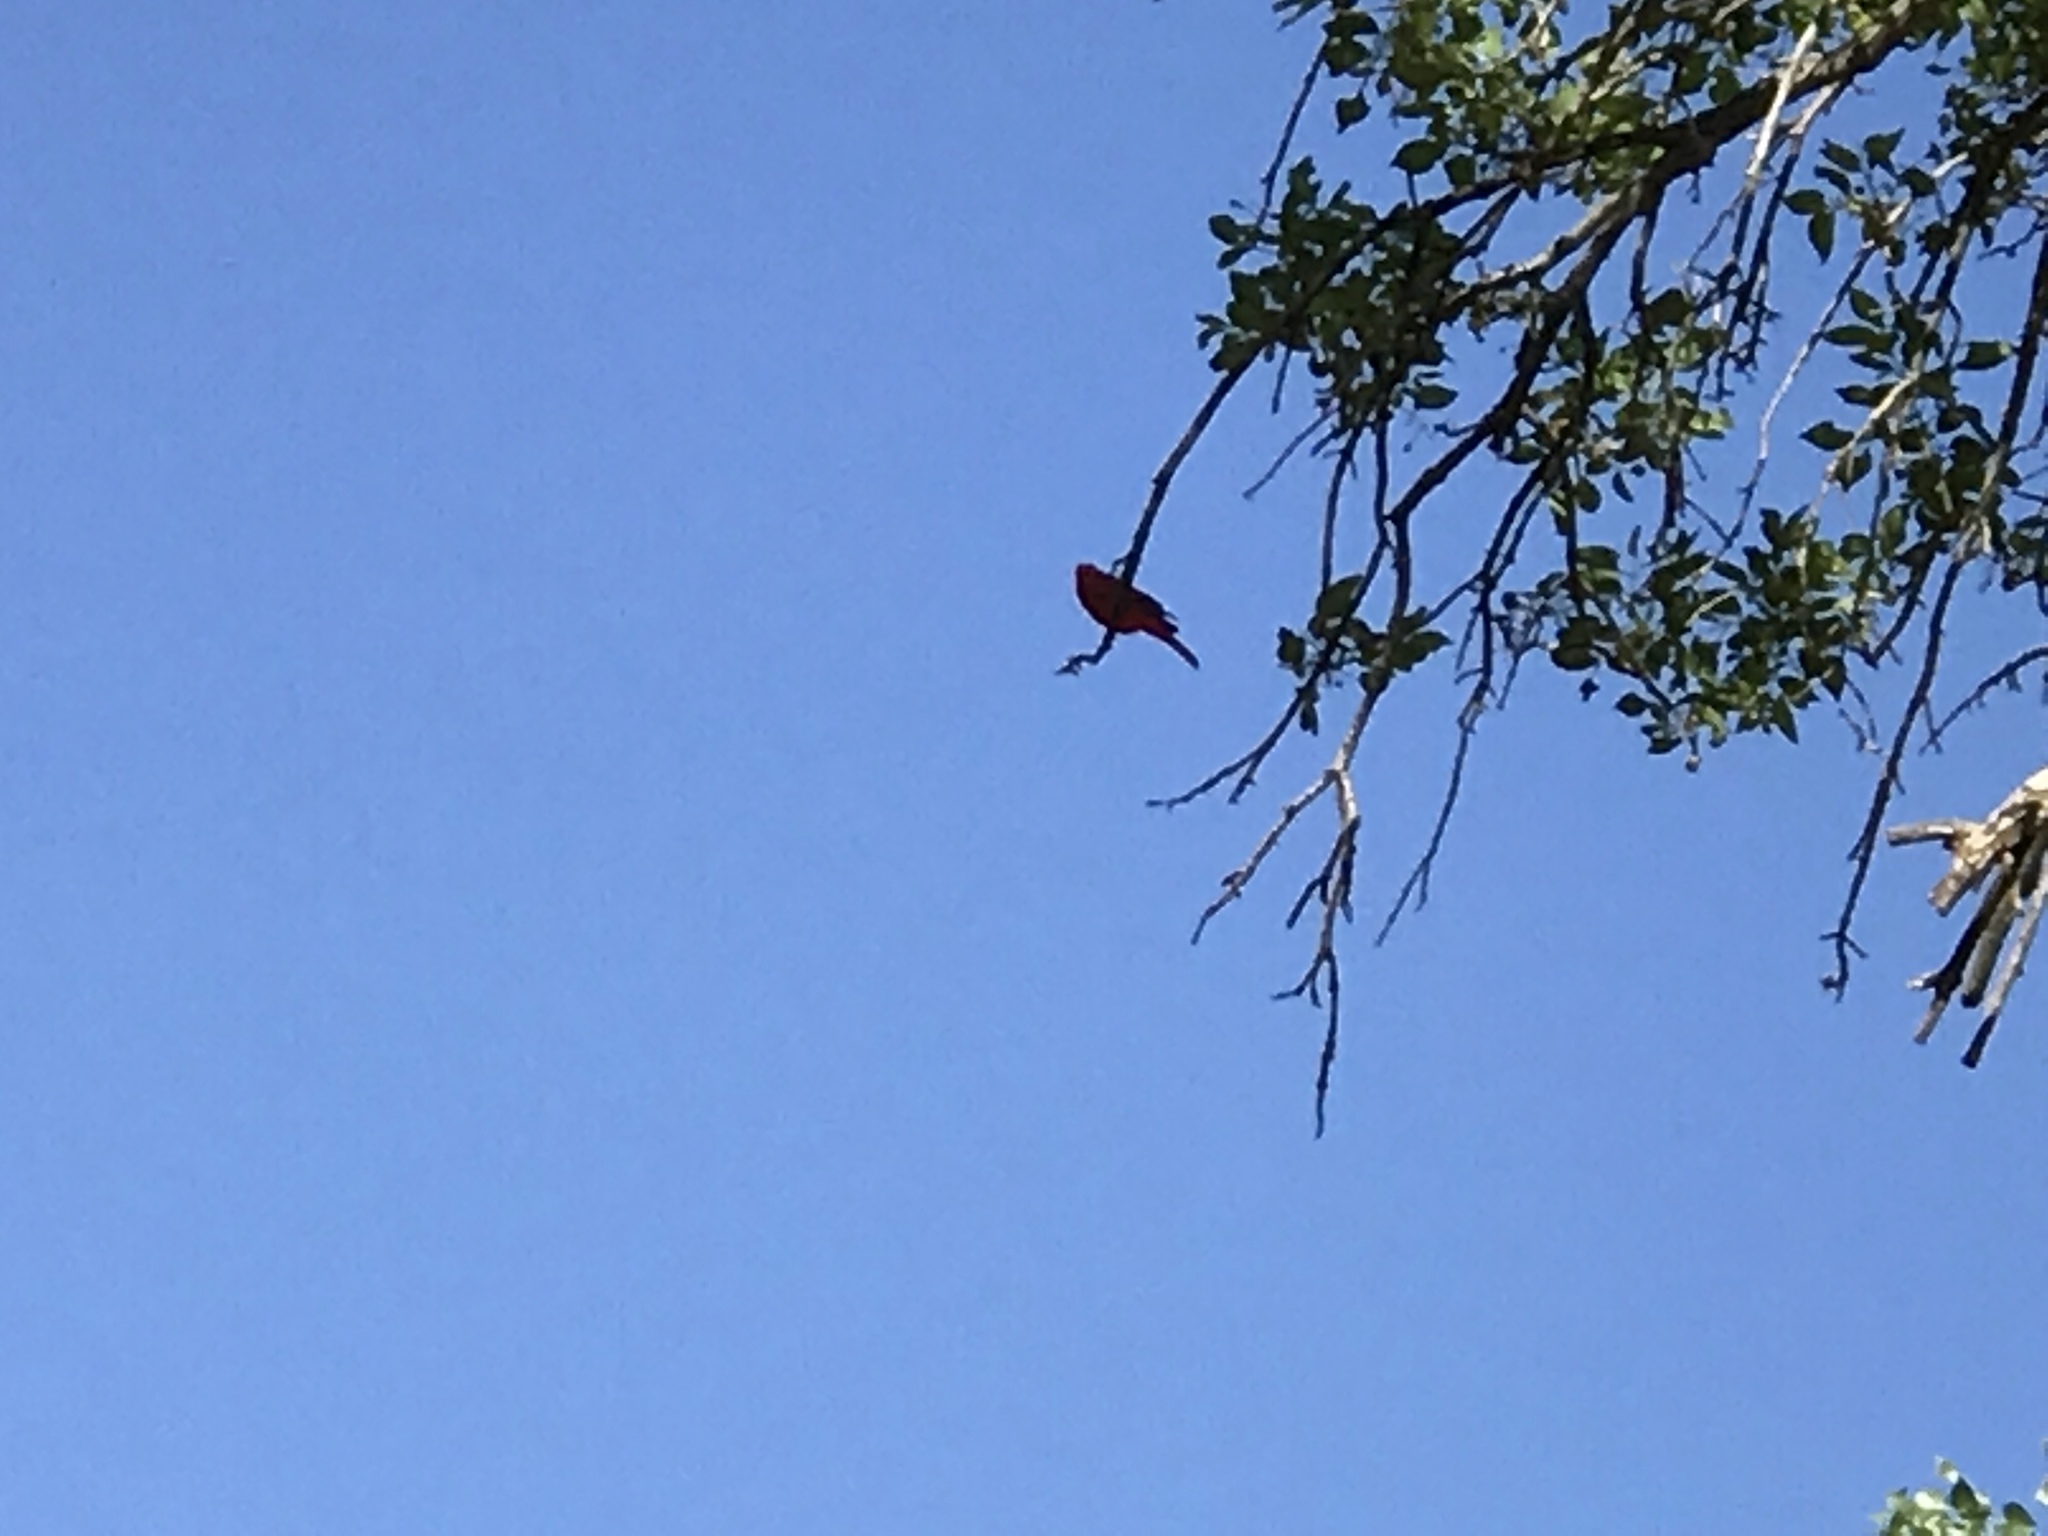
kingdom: Animalia
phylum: Chordata
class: Aves
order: Passeriformes
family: Cardinalidae
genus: Piranga
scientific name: Piranga rubra
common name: Summer tanager
